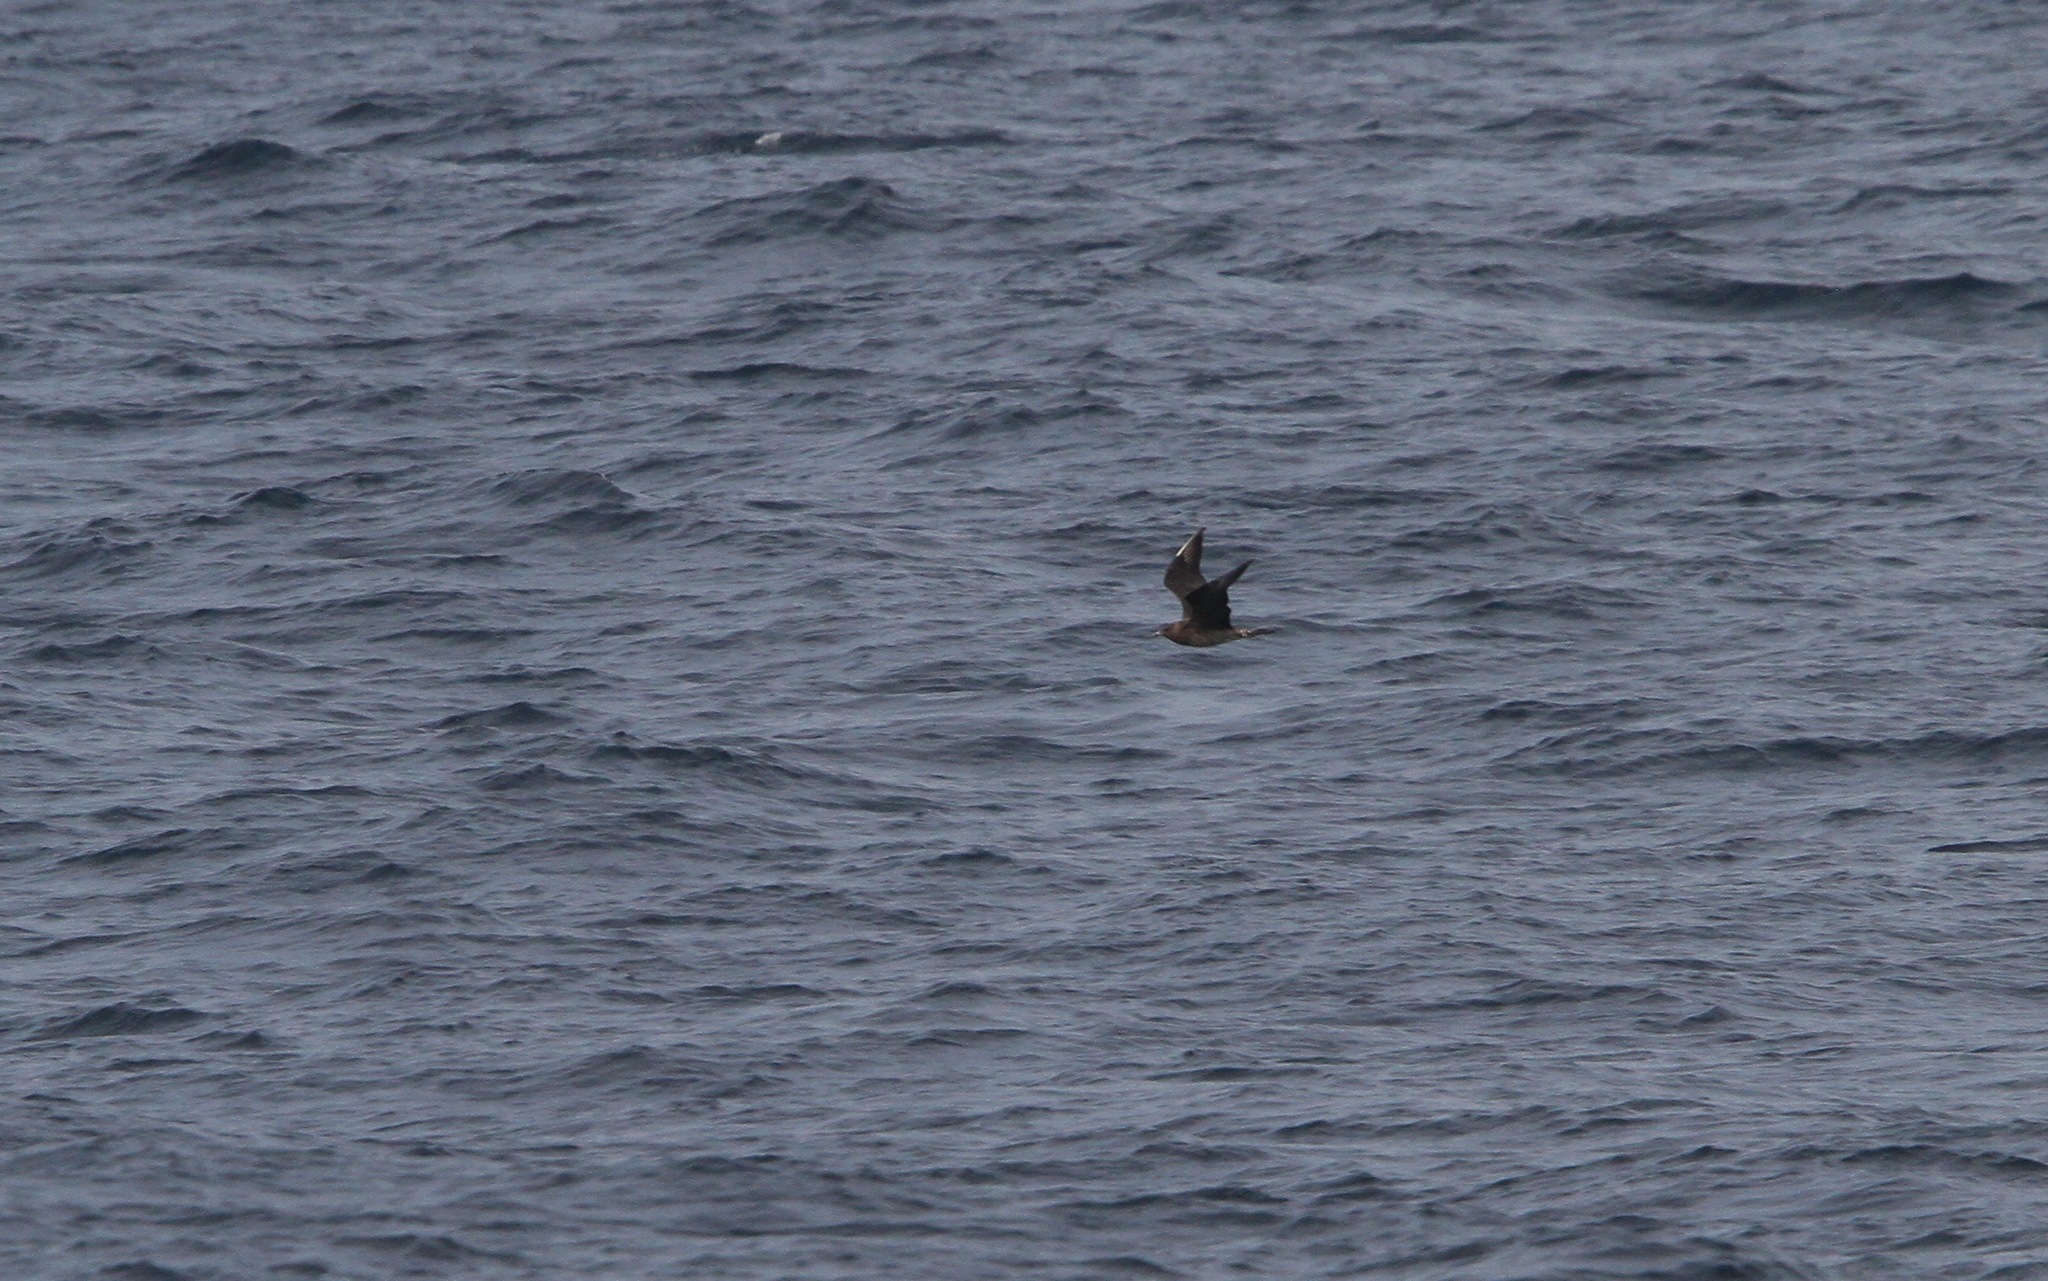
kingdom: Animalia
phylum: Chordata
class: Aves
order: Charadriiformes
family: Stercorariidae
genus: Stercorarius
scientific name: Stercorarius pomarinus
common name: Pomarine jaeger
